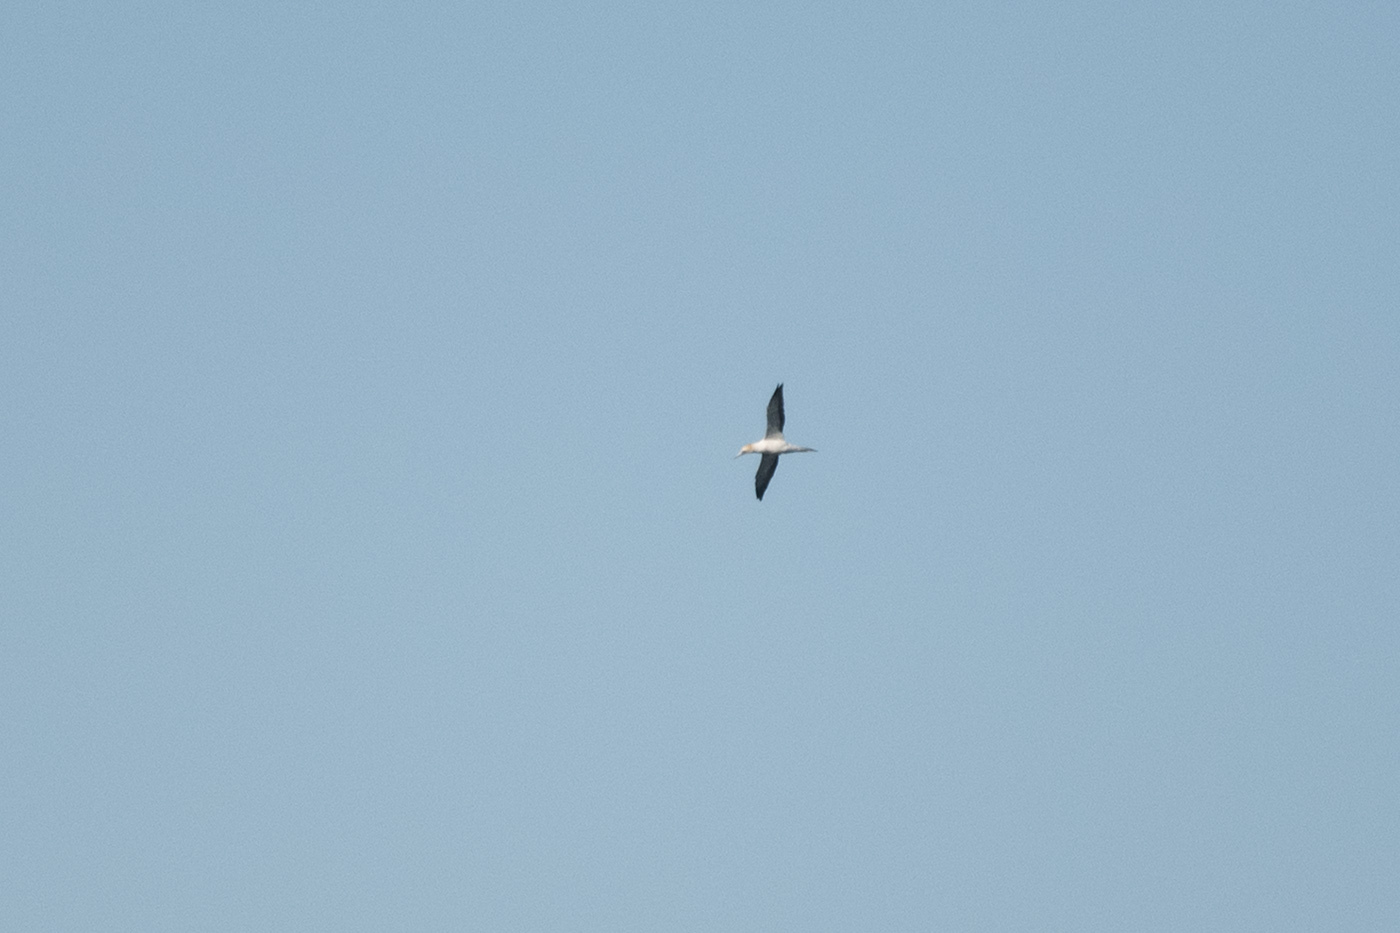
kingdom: Animalia
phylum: Chordata
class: Aves
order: Suliformes
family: Sulidae
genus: Morus
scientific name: Morus serrator
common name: Australasian gannet
